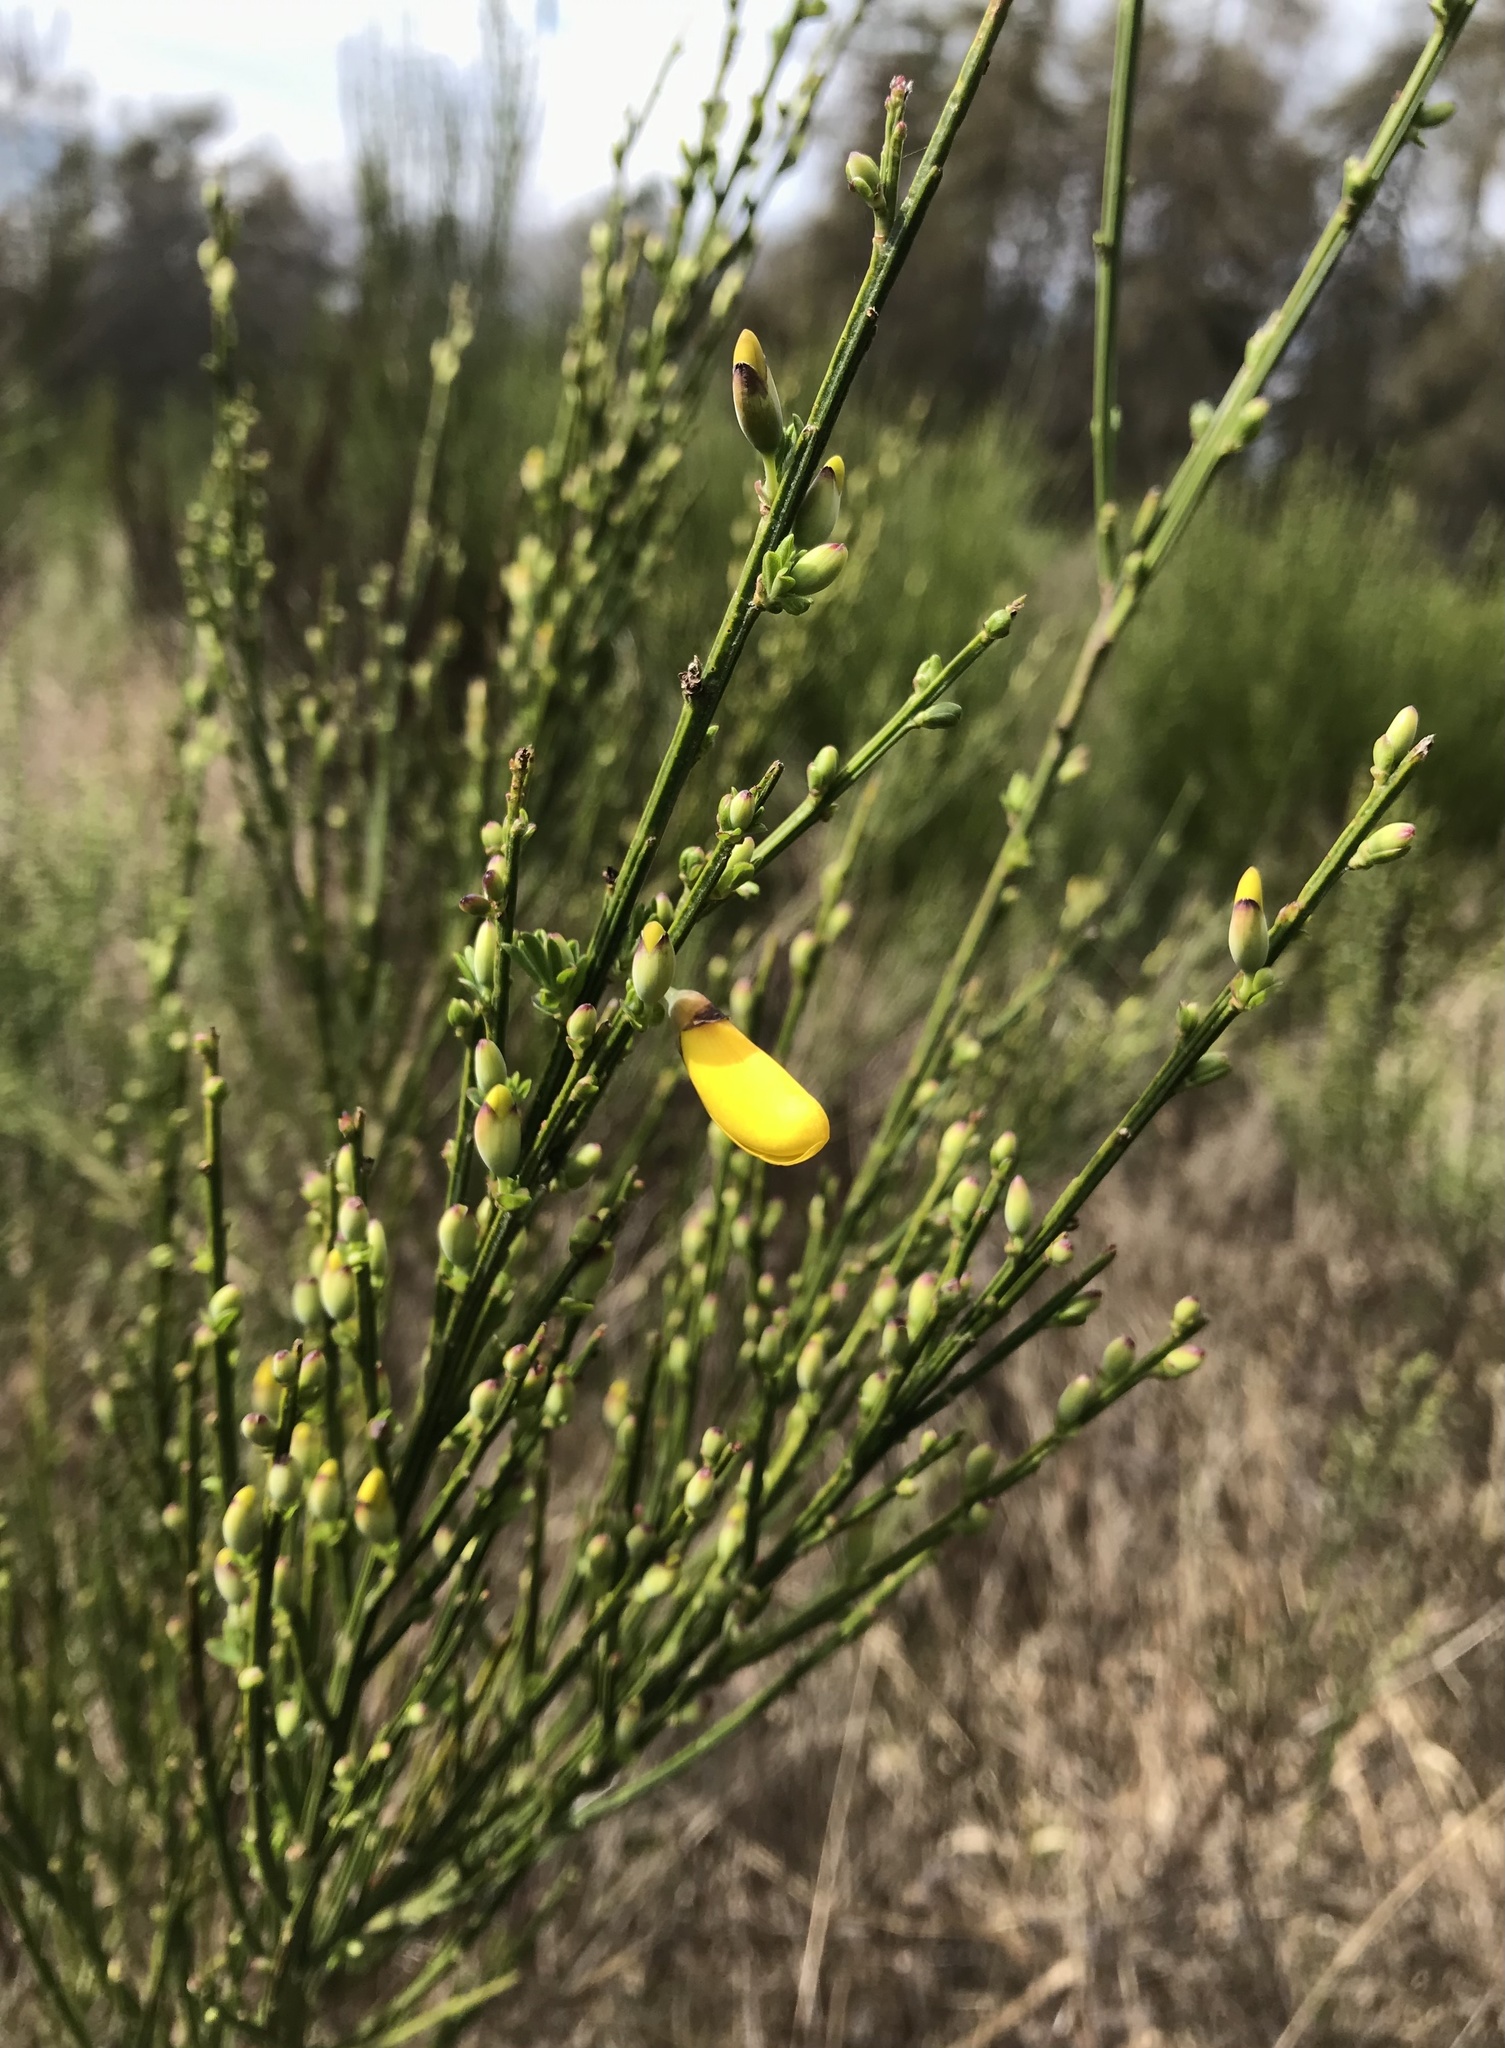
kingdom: Plantae
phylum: Tracheophyta
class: Magnoliopsida
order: Fabales
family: Fabaceae
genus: Cytisus
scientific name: Cytisus scoparius
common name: Scotch broom
